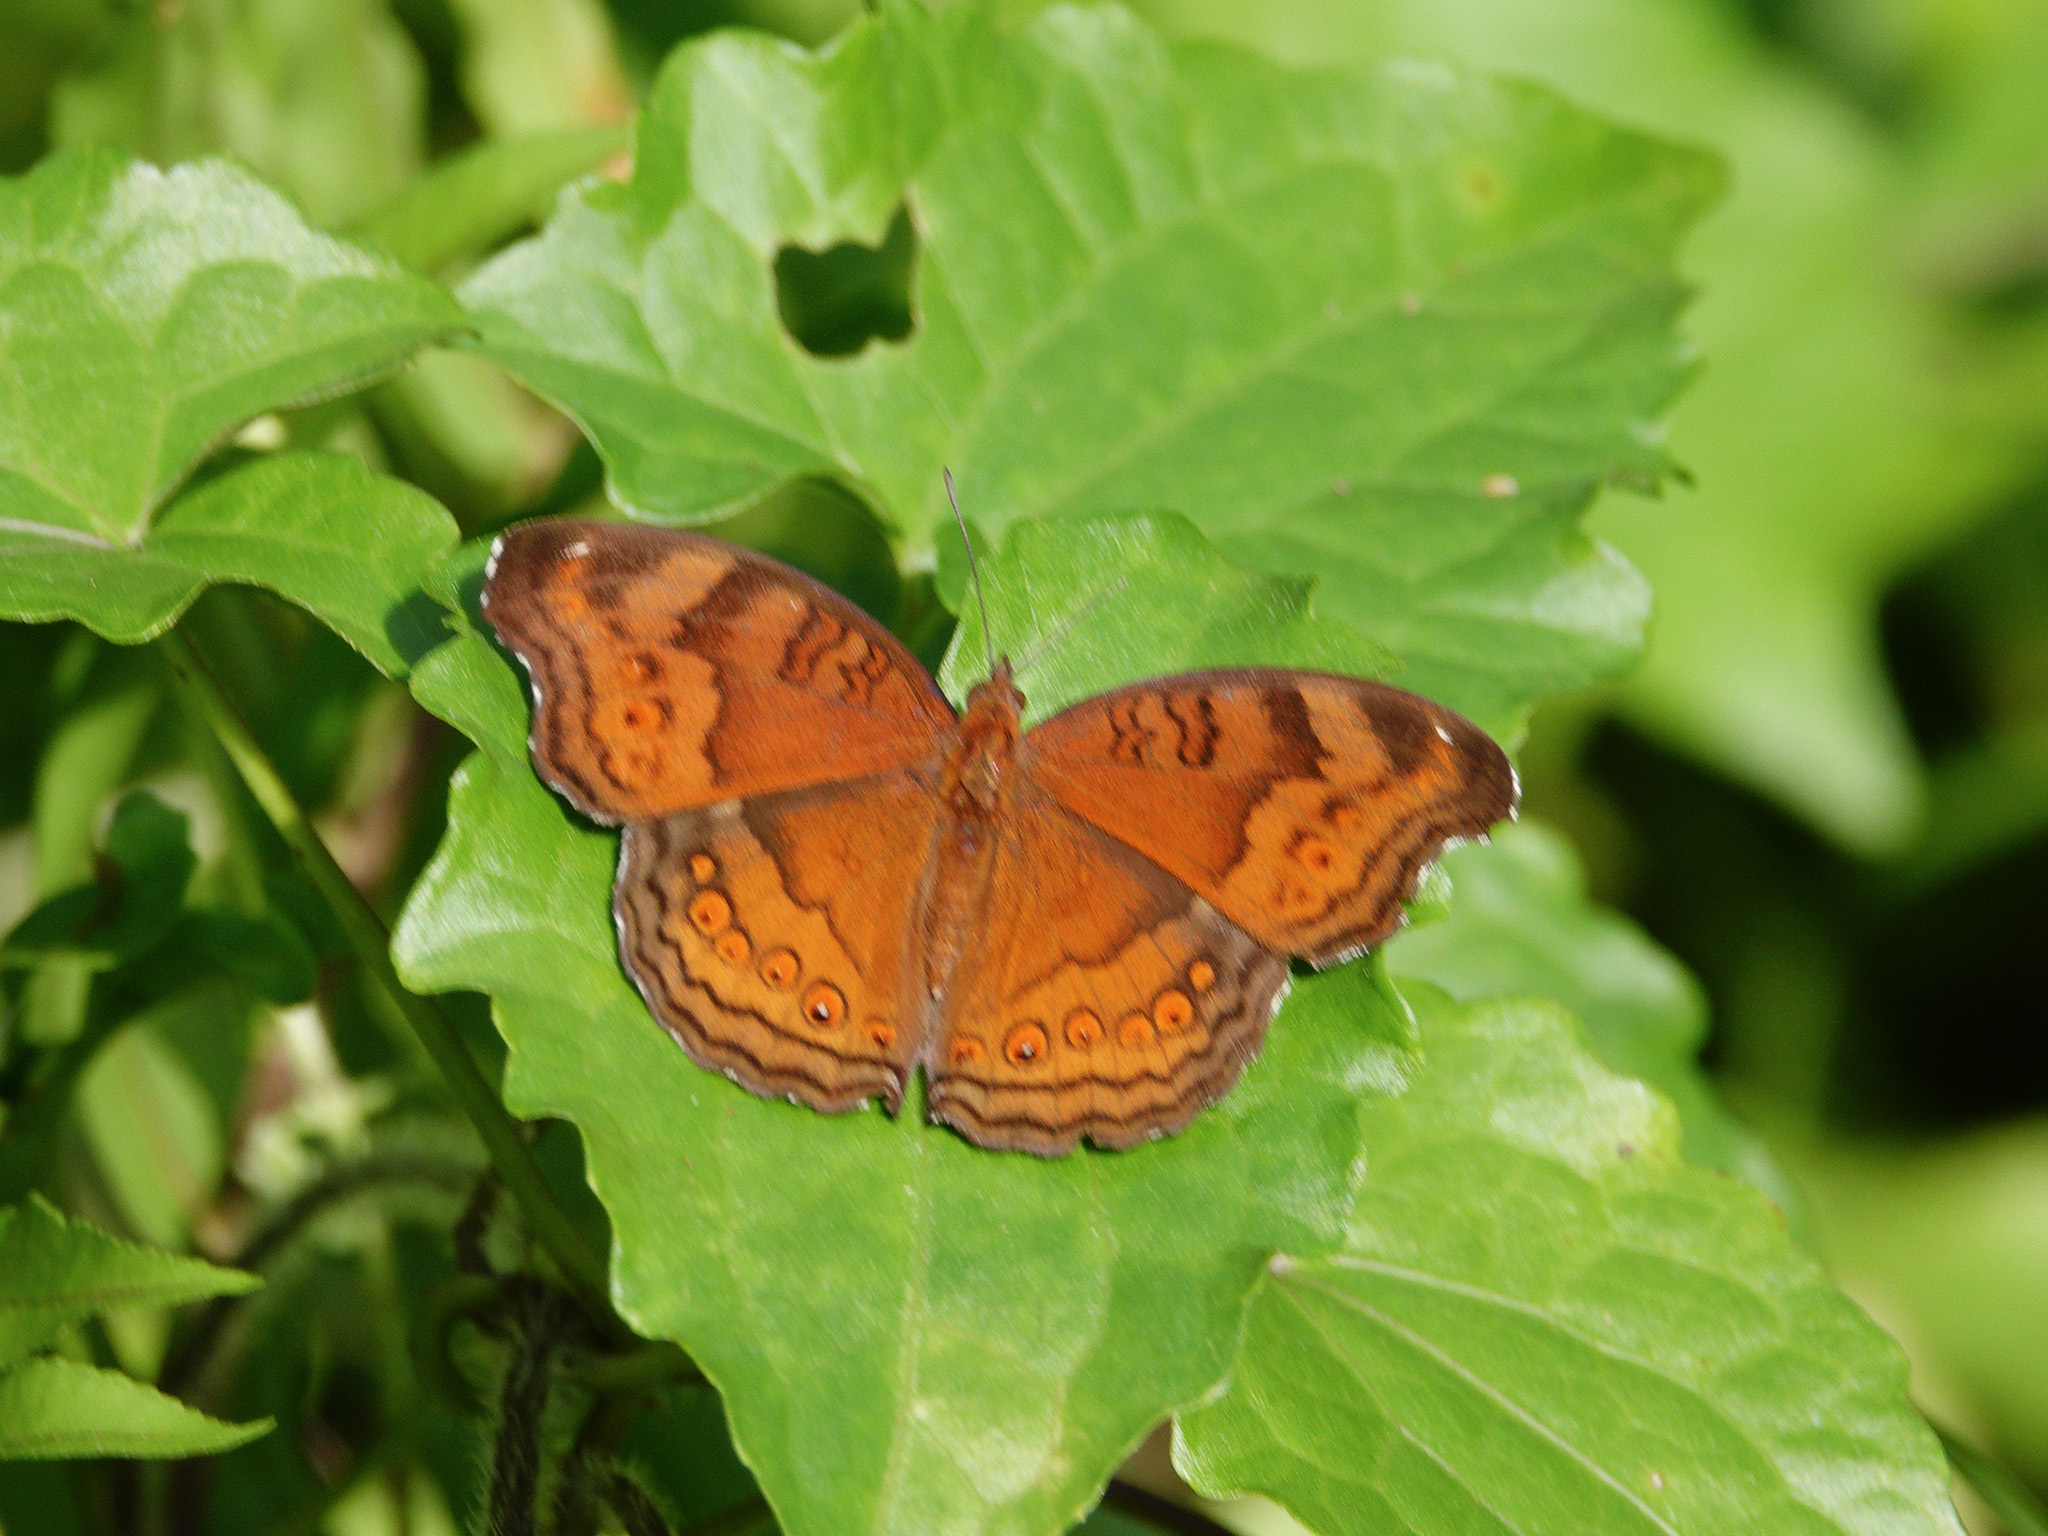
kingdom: Animalia
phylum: Arthropoda
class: Insecta
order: Lepidoptera
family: Nymphalidae
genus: Junonia
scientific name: Junonia hedonia
